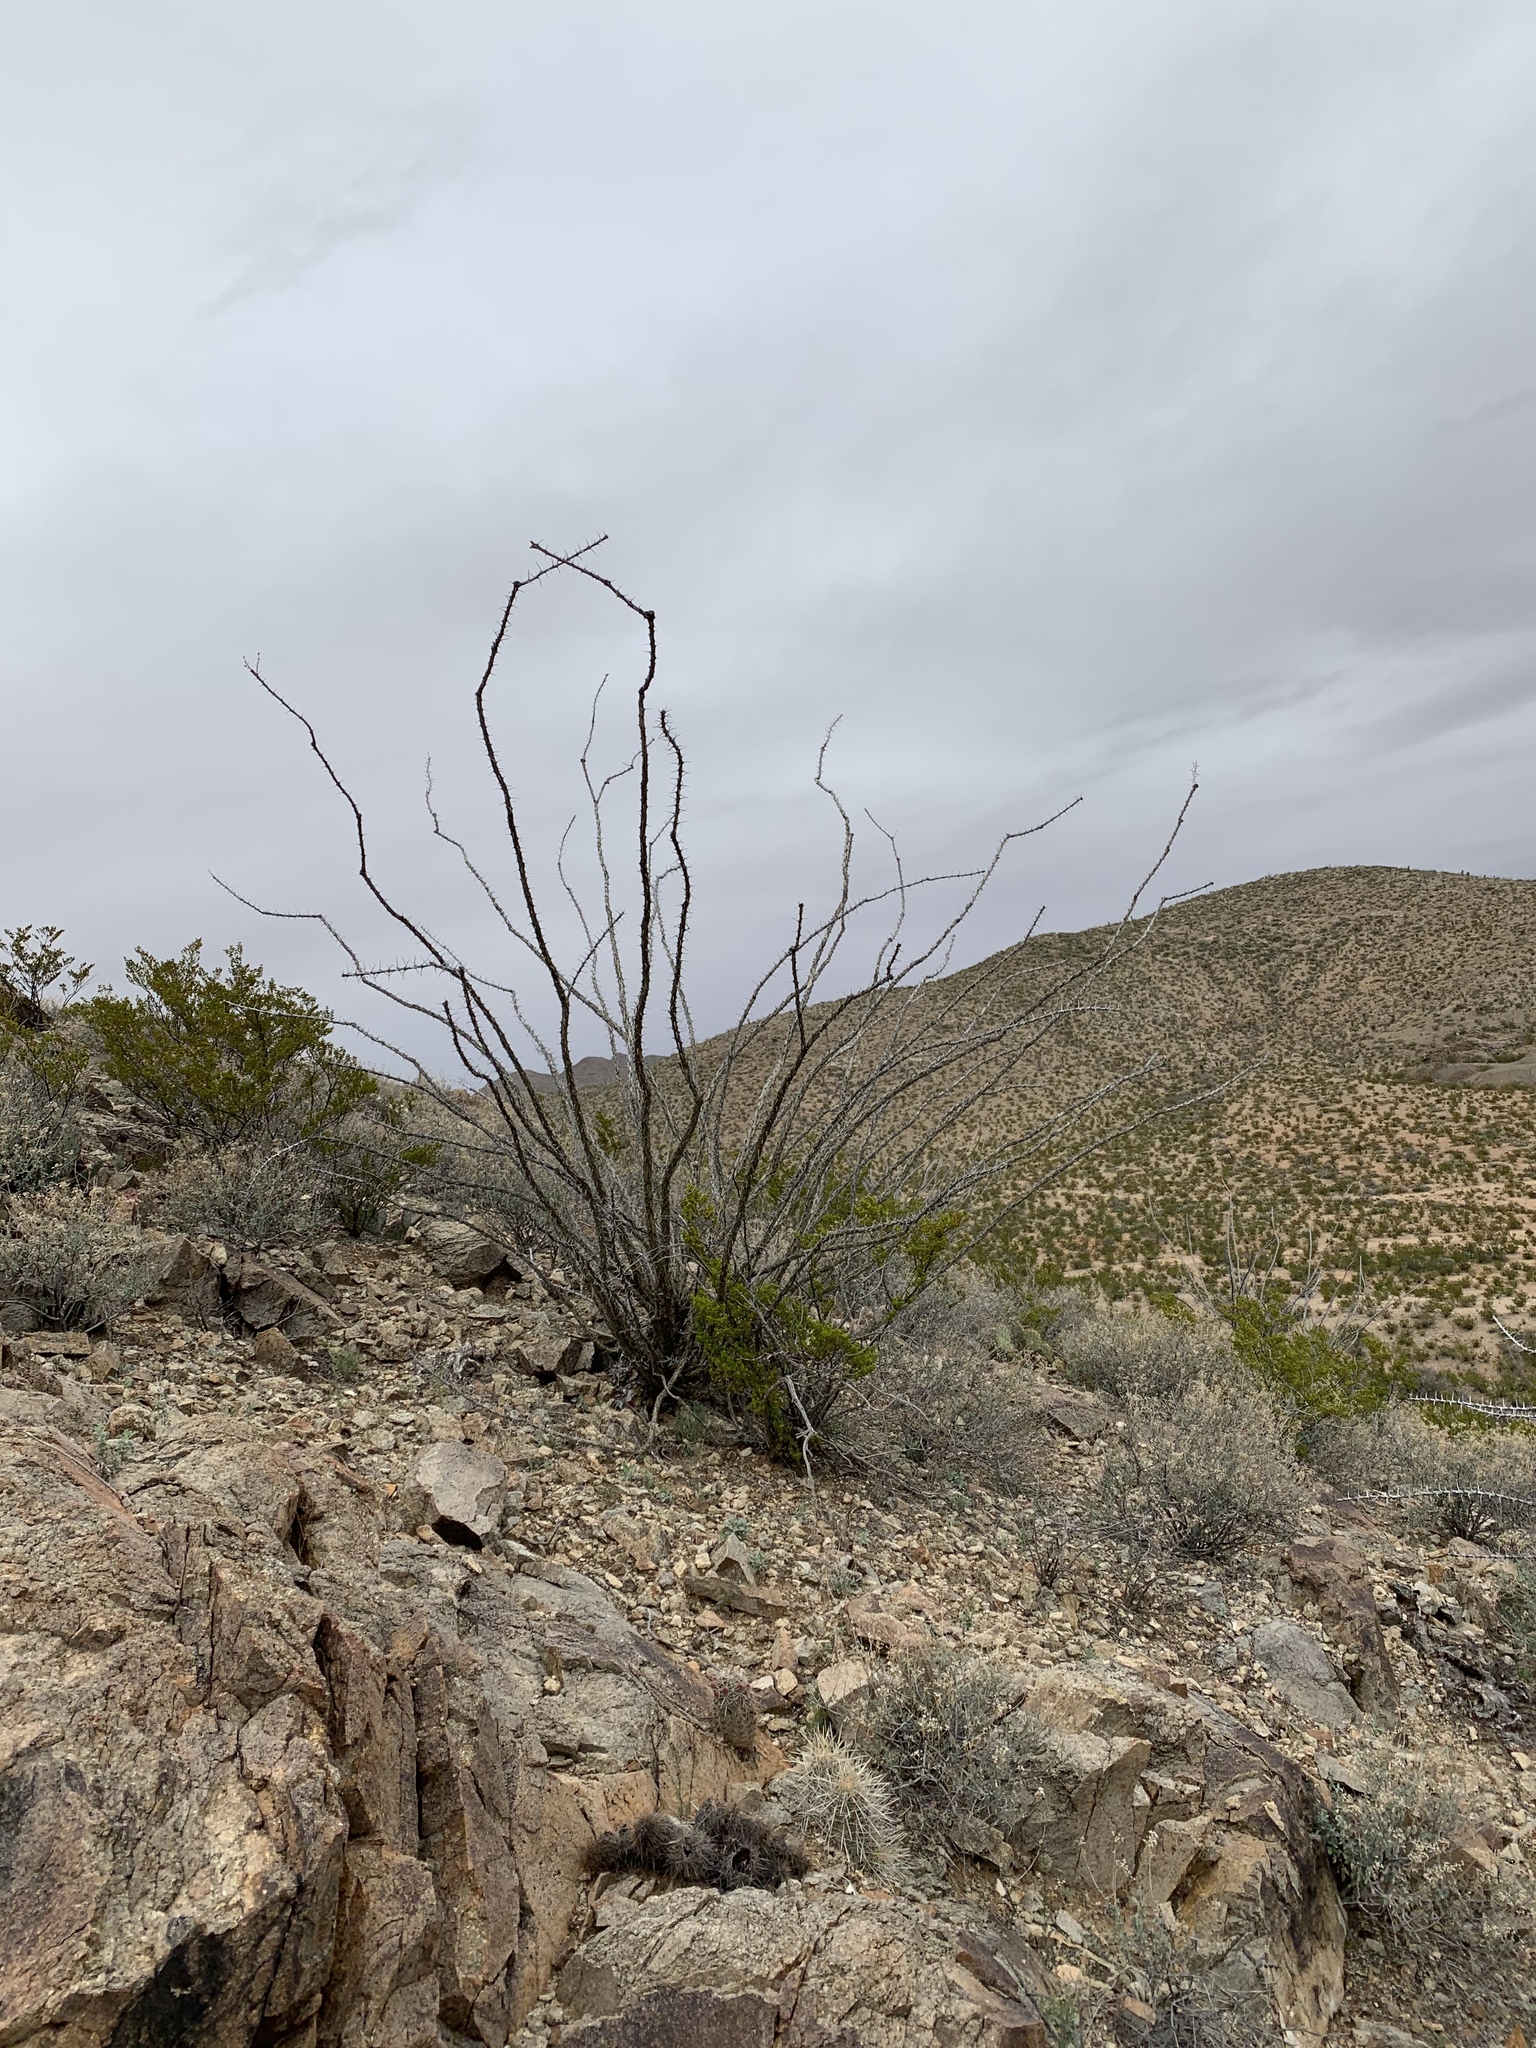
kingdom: Plantae
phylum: Tracheophyta
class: Magnoliopsida
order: Ericales
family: Fouquieriaceae
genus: Fouquieria
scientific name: Fouquieria splendens
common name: Vine-cactus
